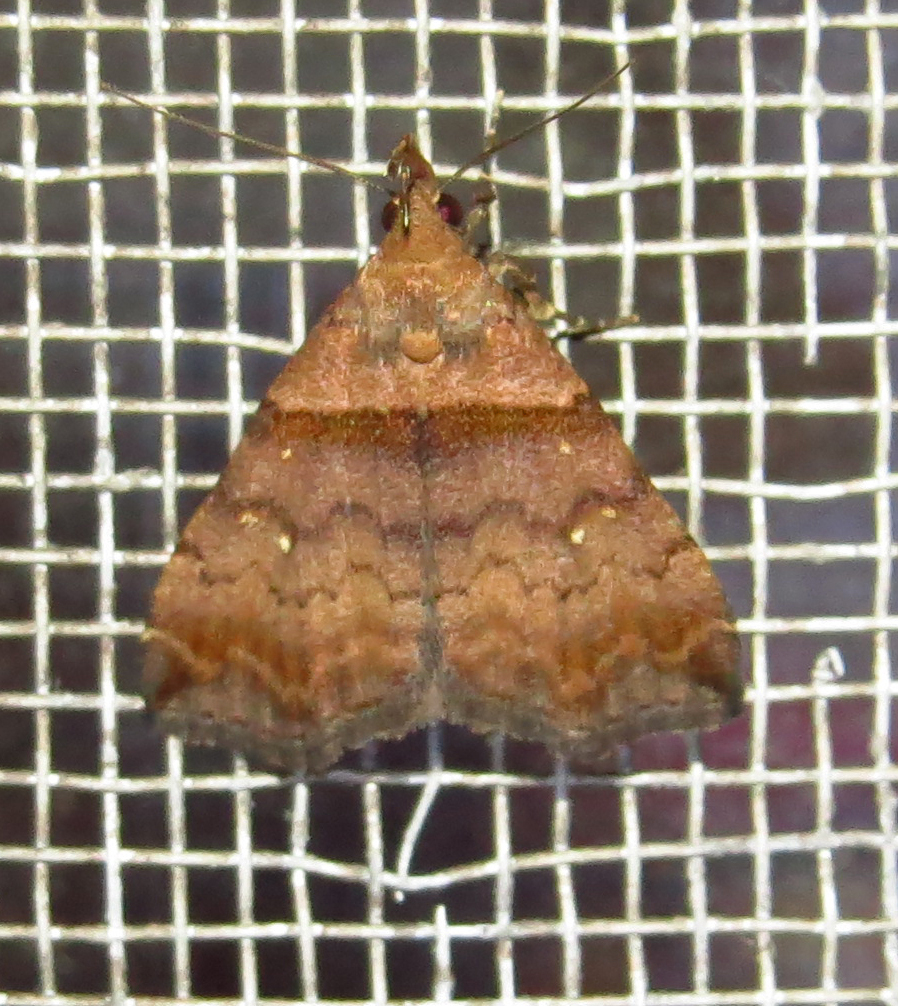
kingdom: Animalia
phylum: Arthropoda
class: Insecta
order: Lepidoptera
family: Erebidae
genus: Lascoria
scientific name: Lascoria ambigualis
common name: Ambiguous moth
